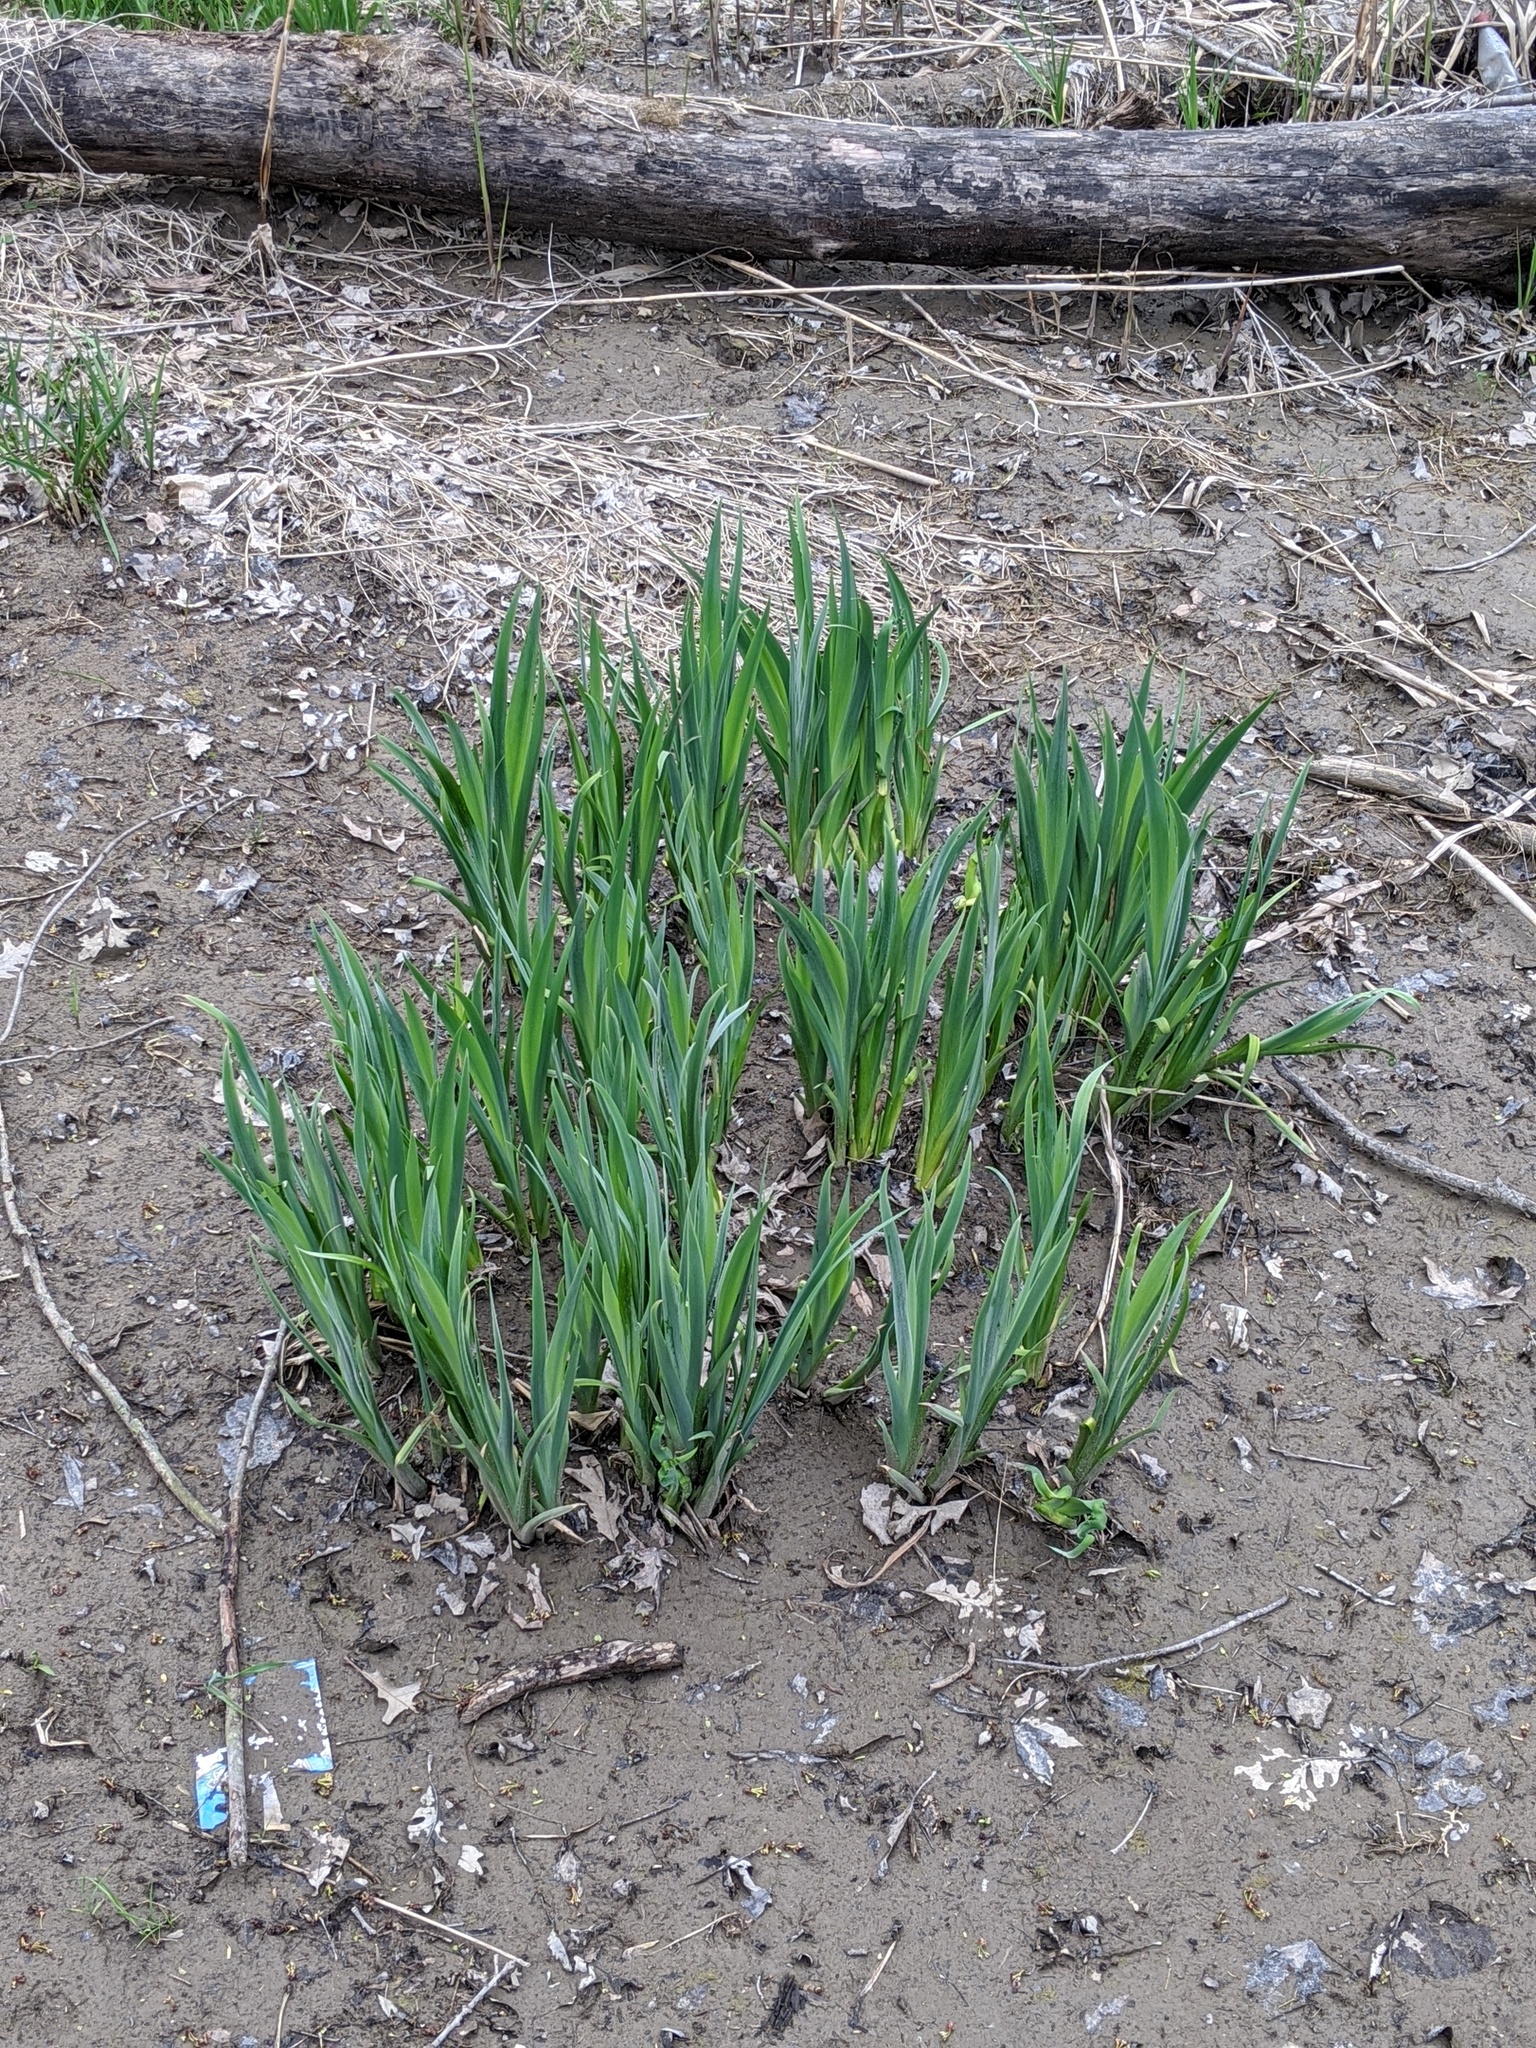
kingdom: Plantae
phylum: Tracheophyta
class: Liliopsida
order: Asparagales
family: Iridaceae
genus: Iris
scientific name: Iris pseudacorus
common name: Yellow flag
